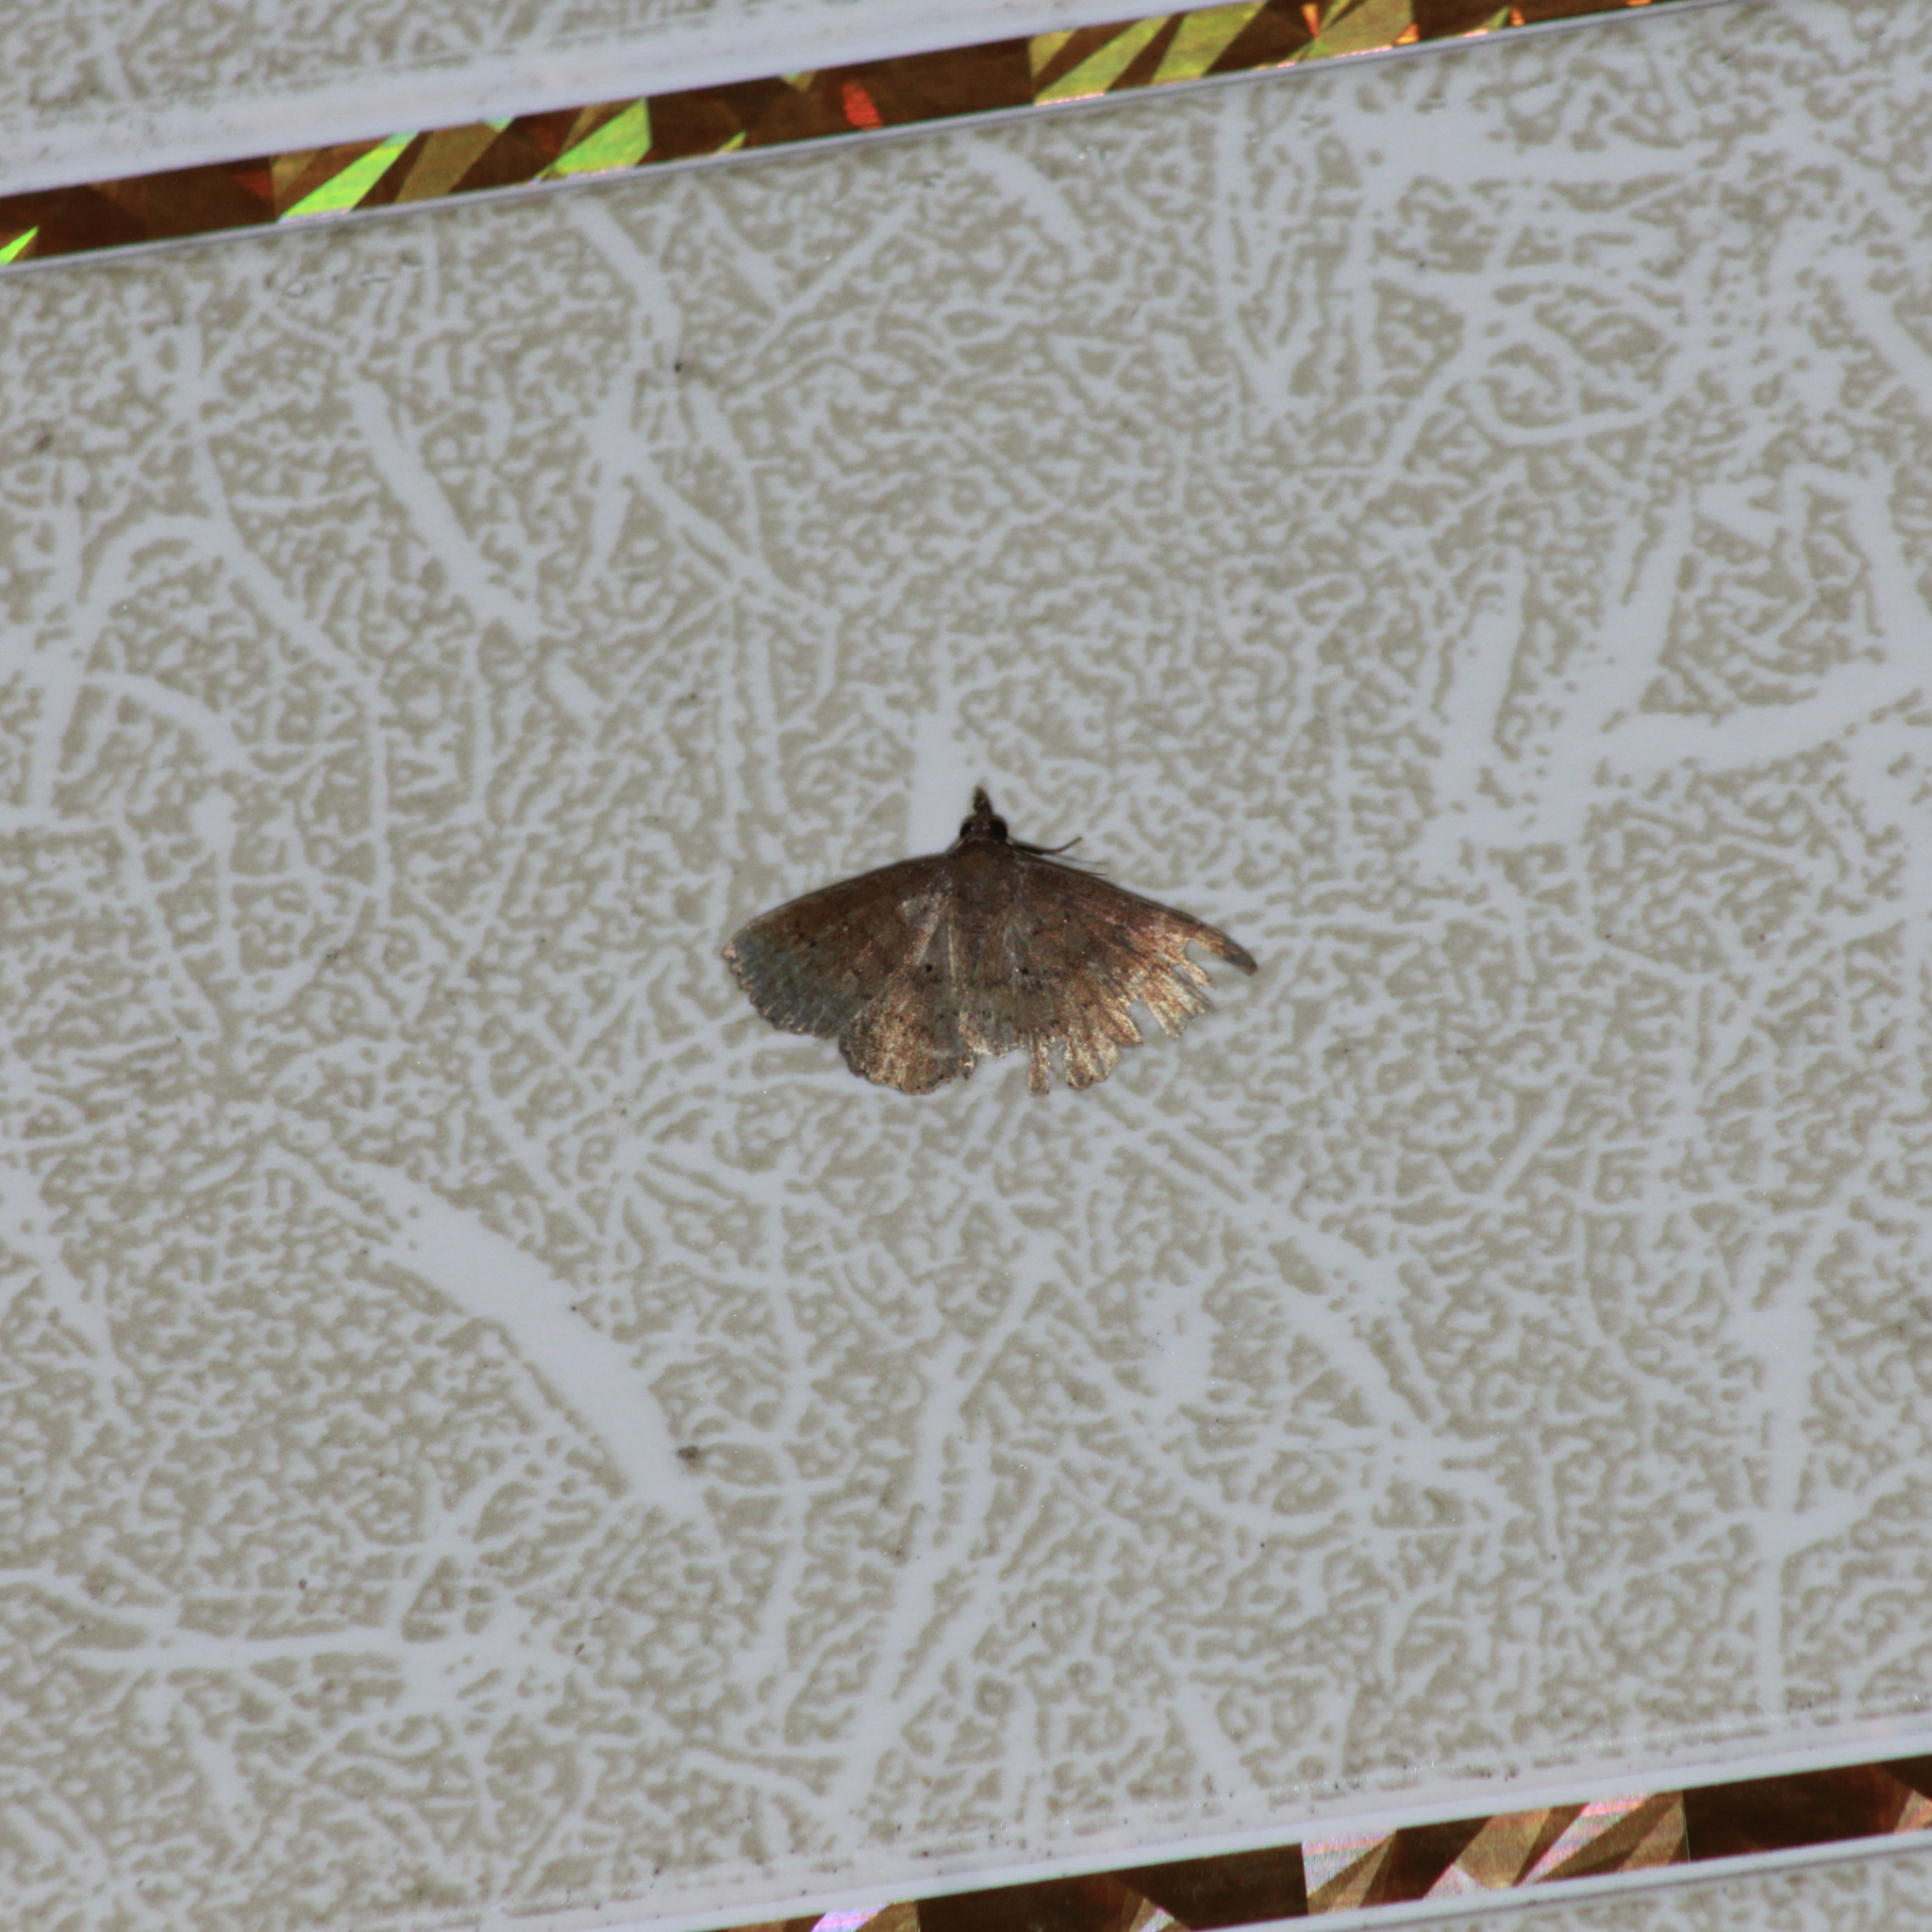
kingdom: Animalia
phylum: Arthropoda
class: Insecta
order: Lepidoptera
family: Erebidae
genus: Bleptina
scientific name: Bleptina dejecta
